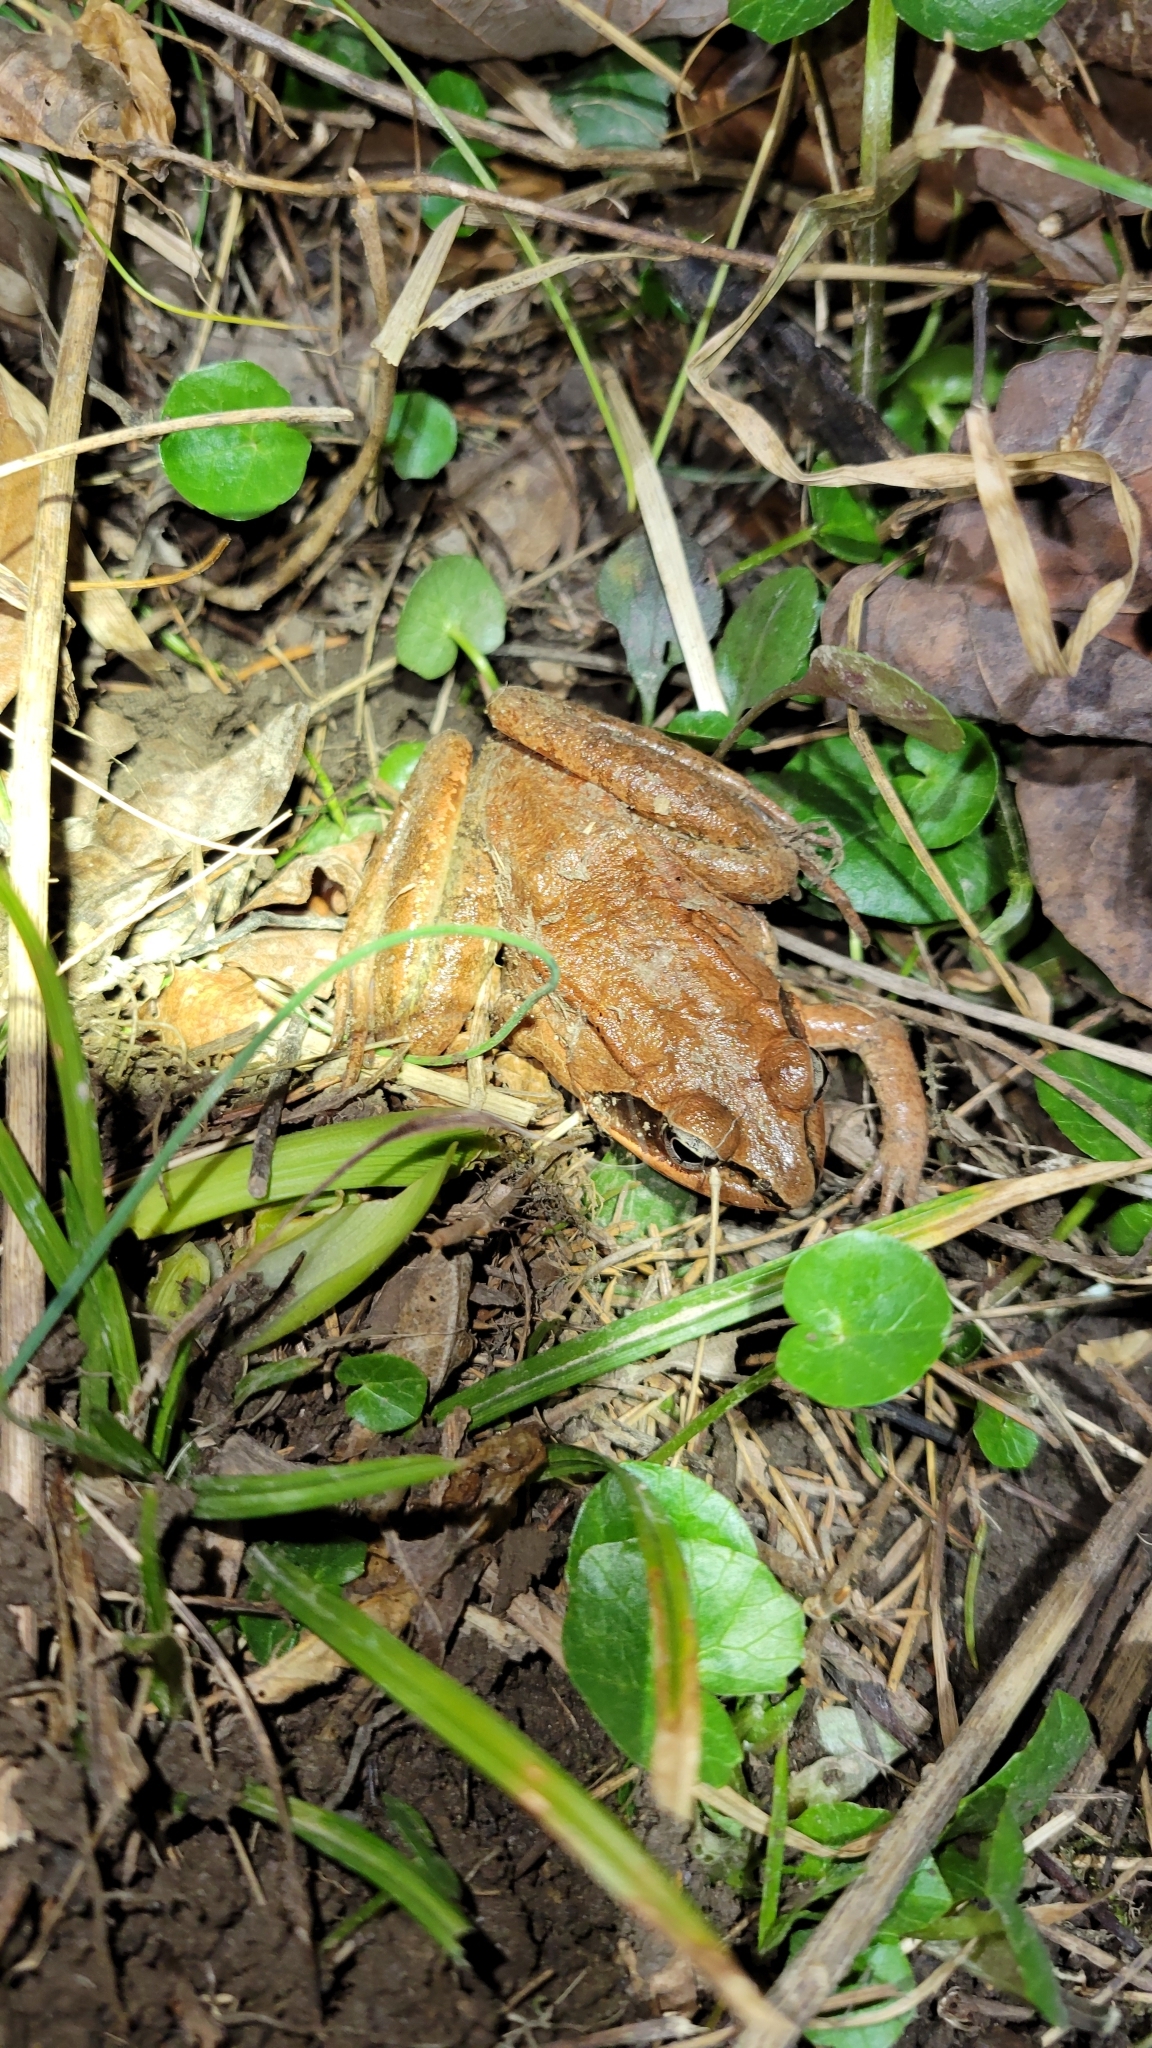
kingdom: Animalia
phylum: Chordata
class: Amphibia
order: Anura
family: Ranidae
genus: Lithobates
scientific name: Lithobates sylvaticus
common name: Wood frog
